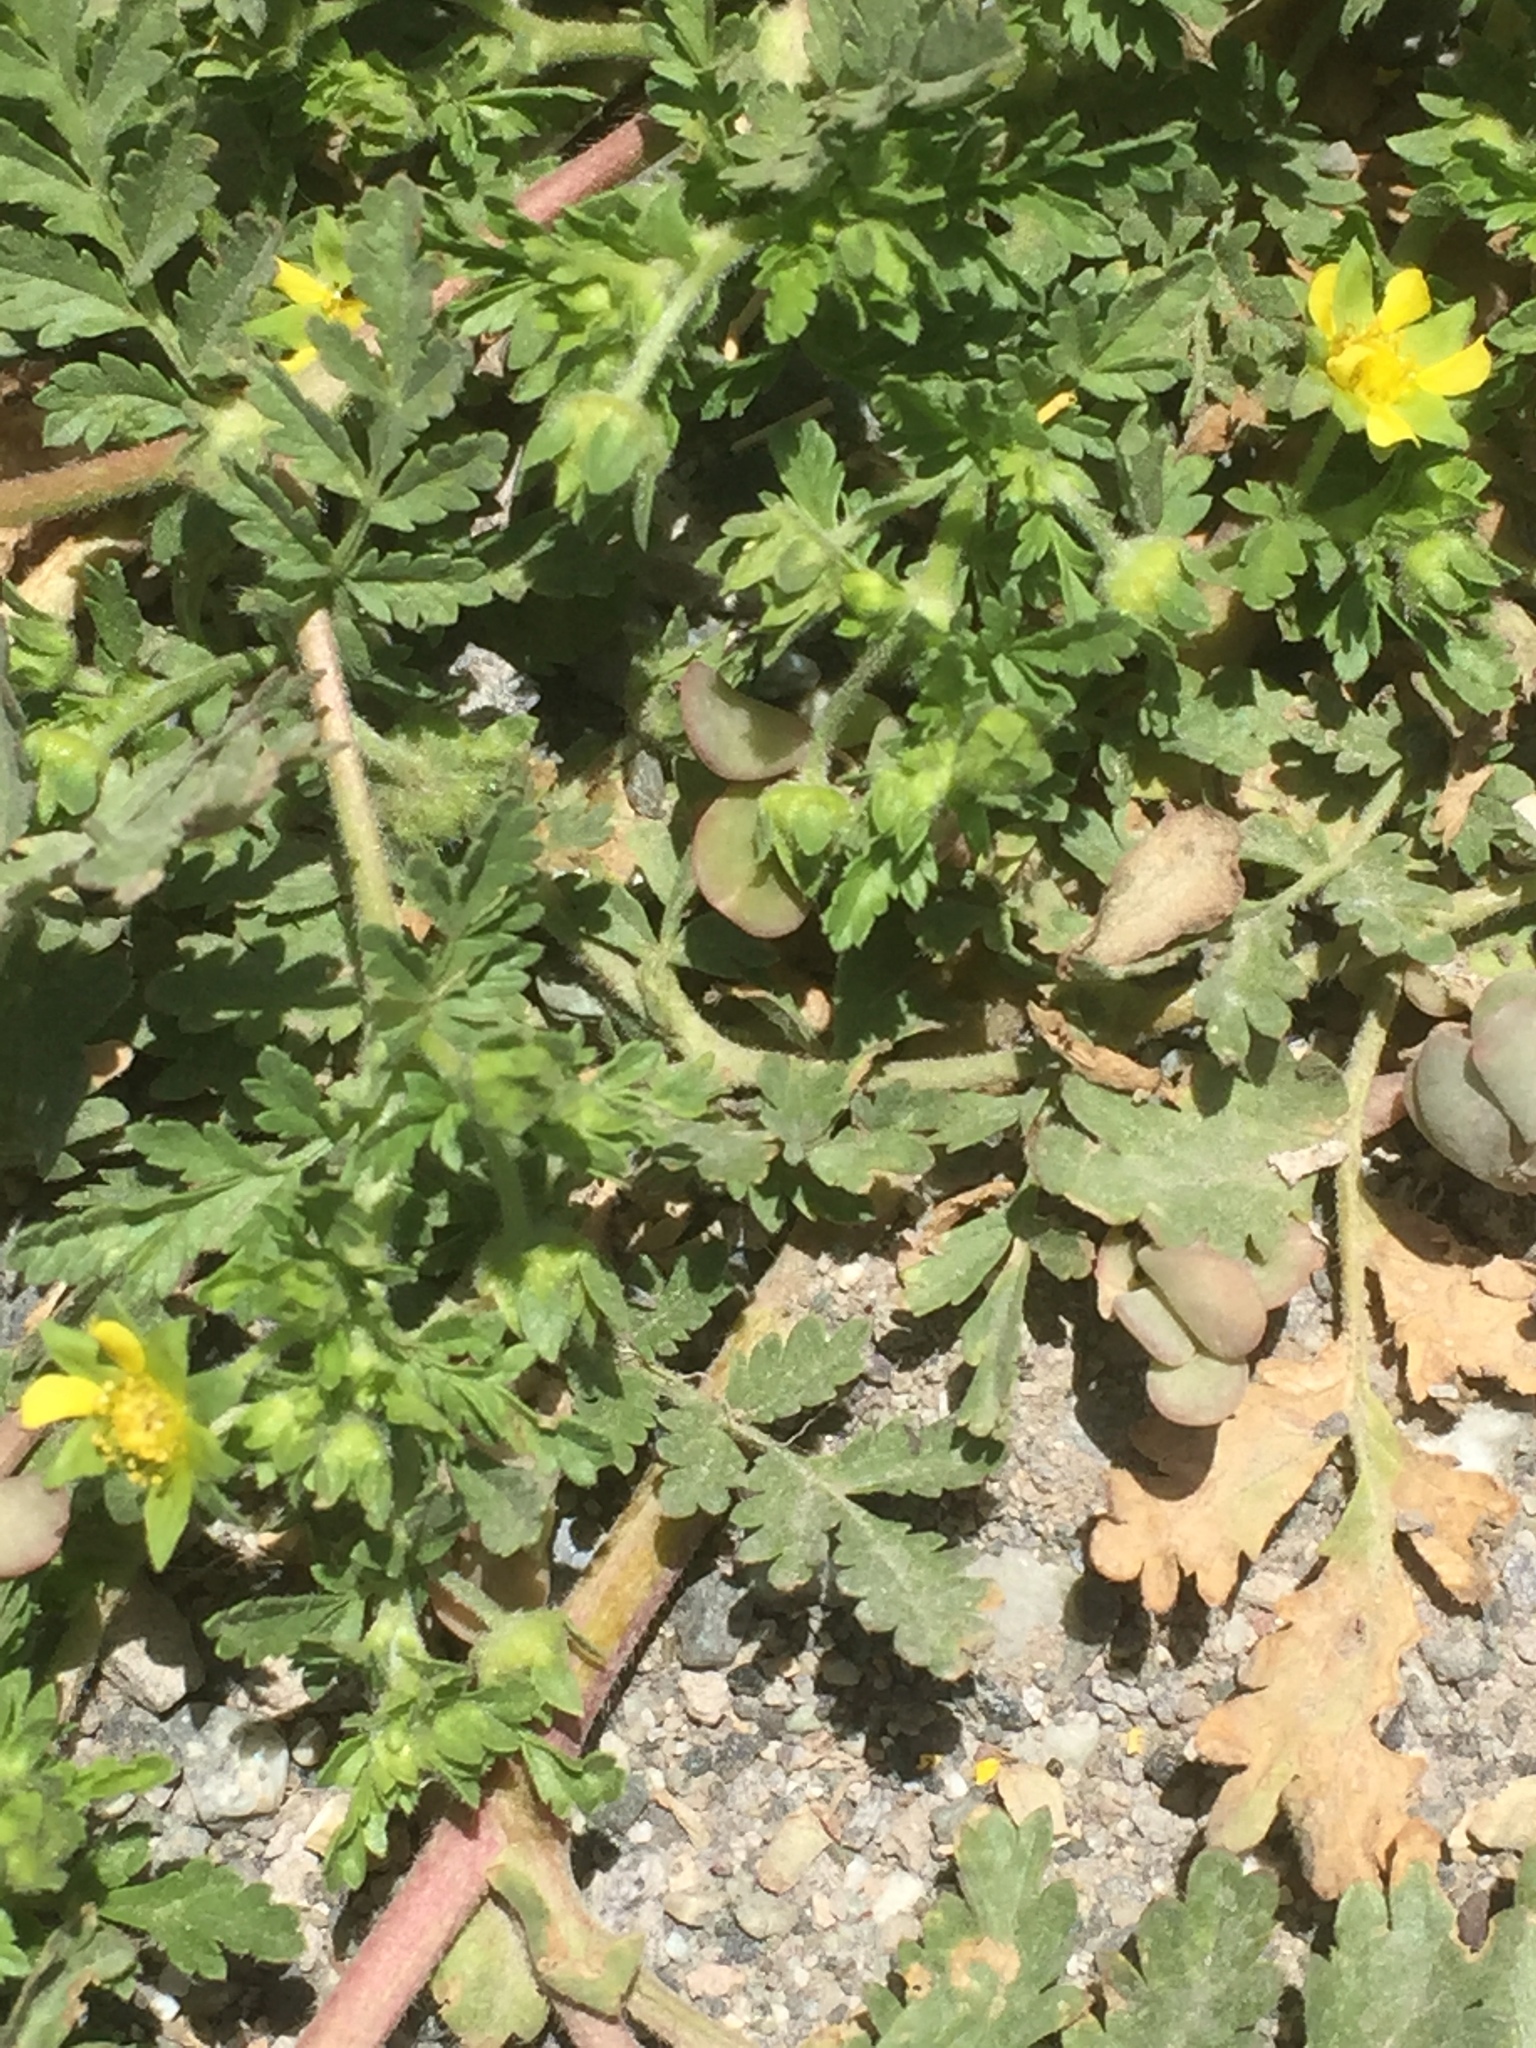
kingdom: Plantae
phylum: Tracheophyta
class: Magnoliopsida
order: Rosales
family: Rosaceae
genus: Potentilla
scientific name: Potentilla supina
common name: Prostrate cinquefoil
